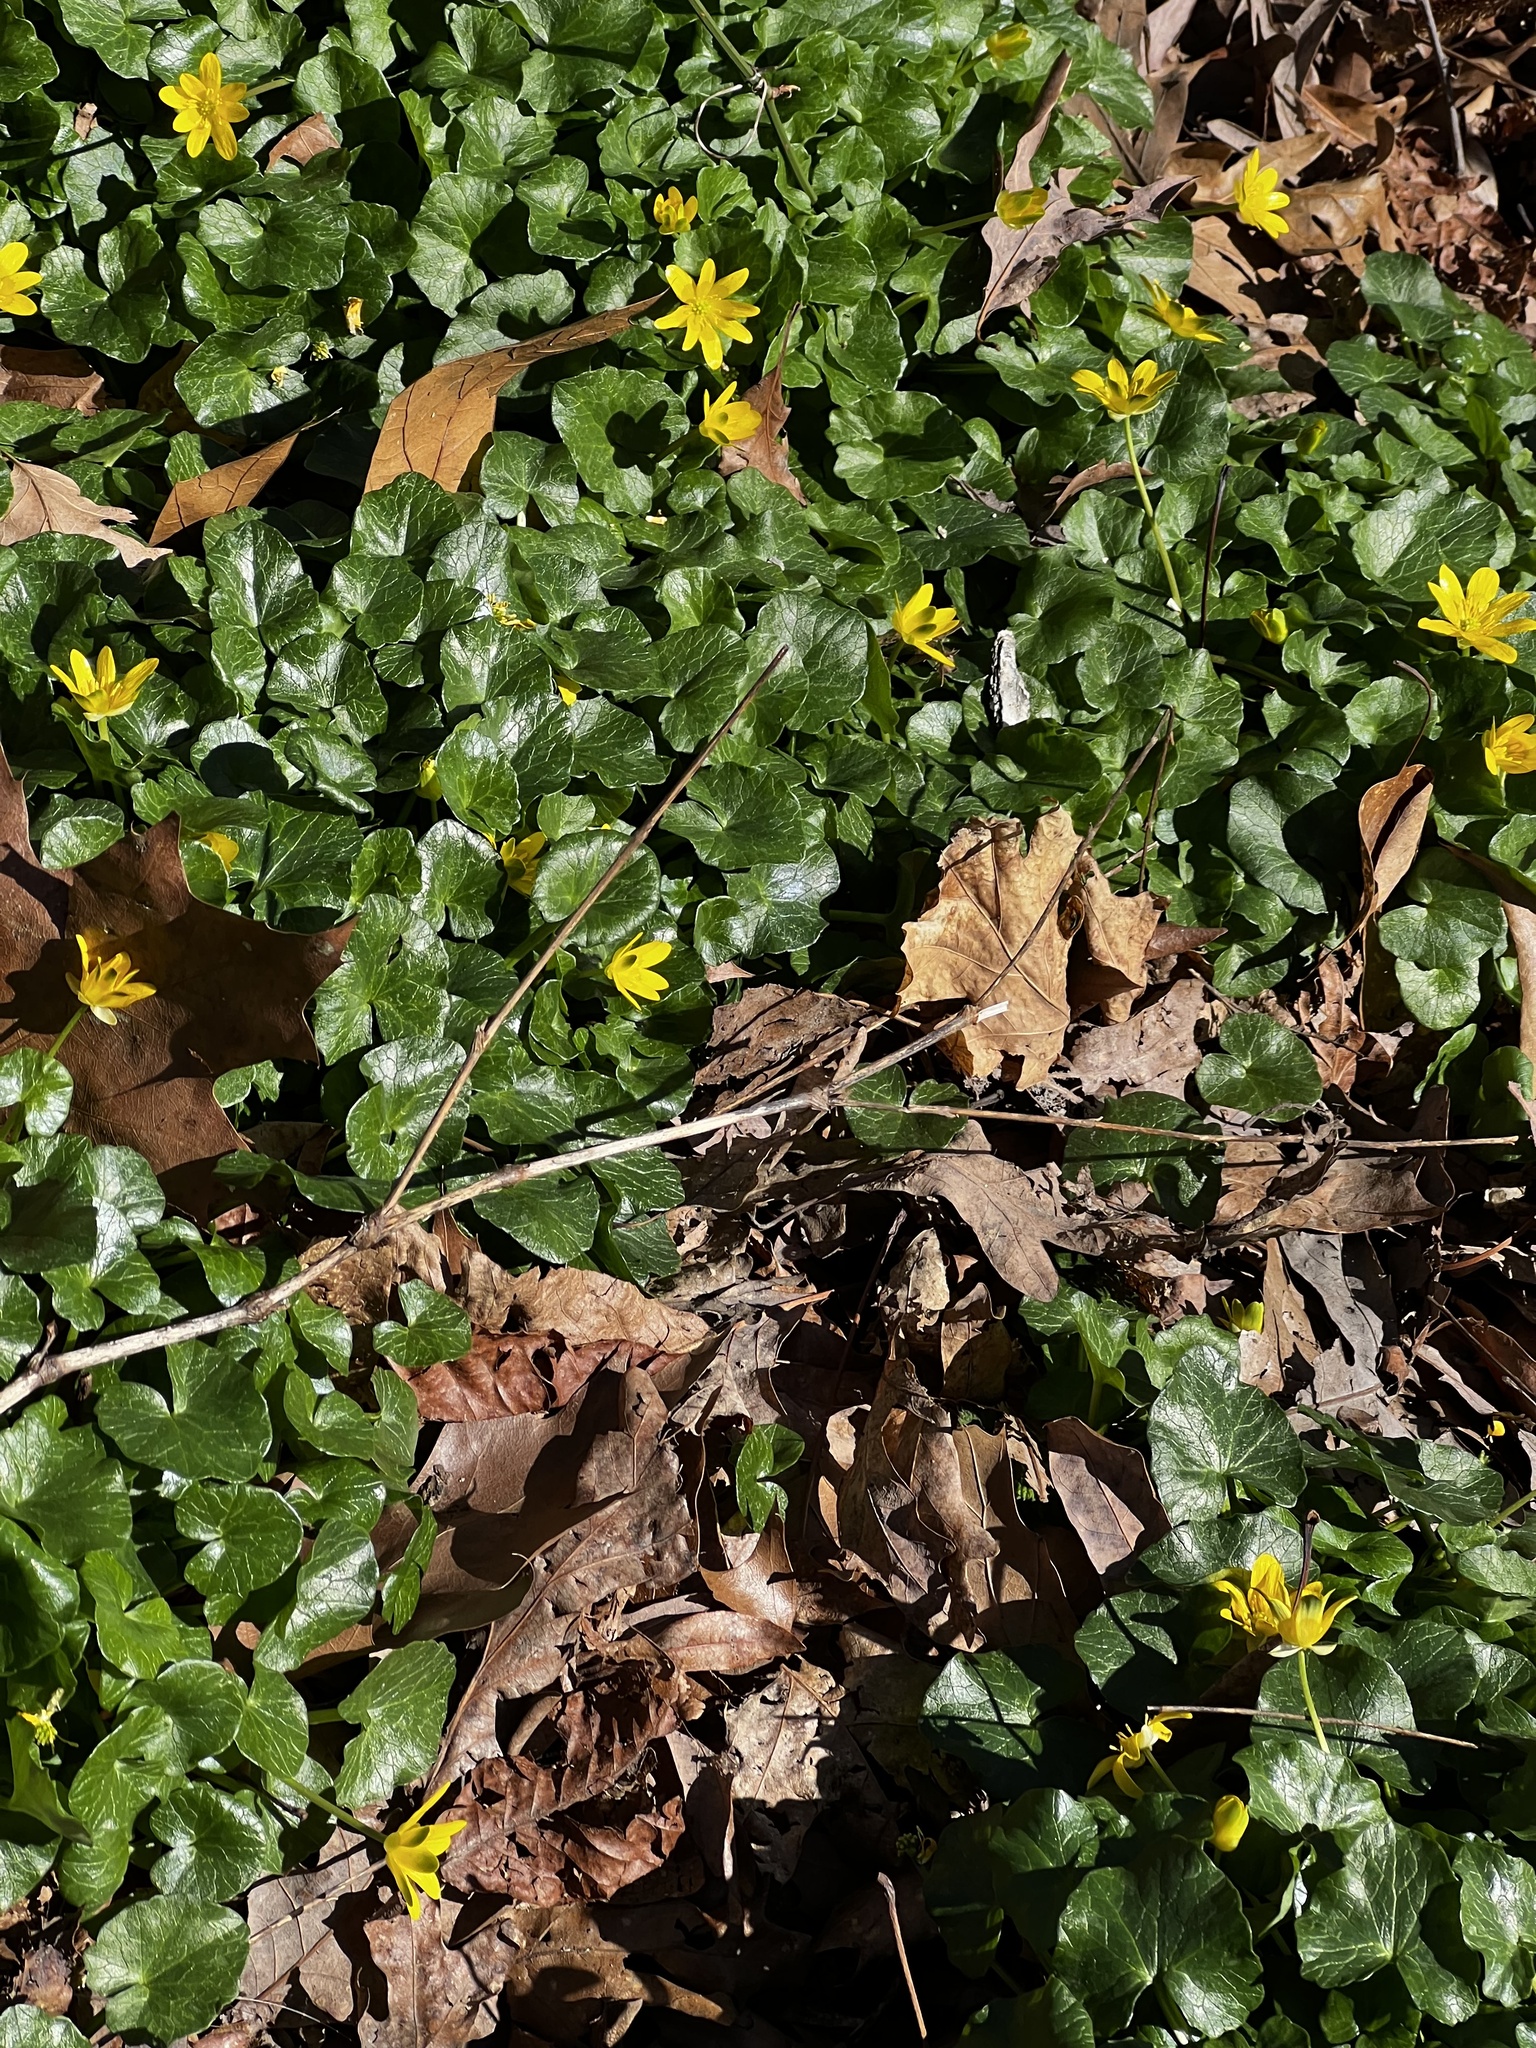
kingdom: Plantae
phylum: Tracheophyta
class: Magnoliopsida
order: Ranunculales
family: Ranunculaceae
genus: Ficaria
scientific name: Ficaria verna
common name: Lesser celandine
